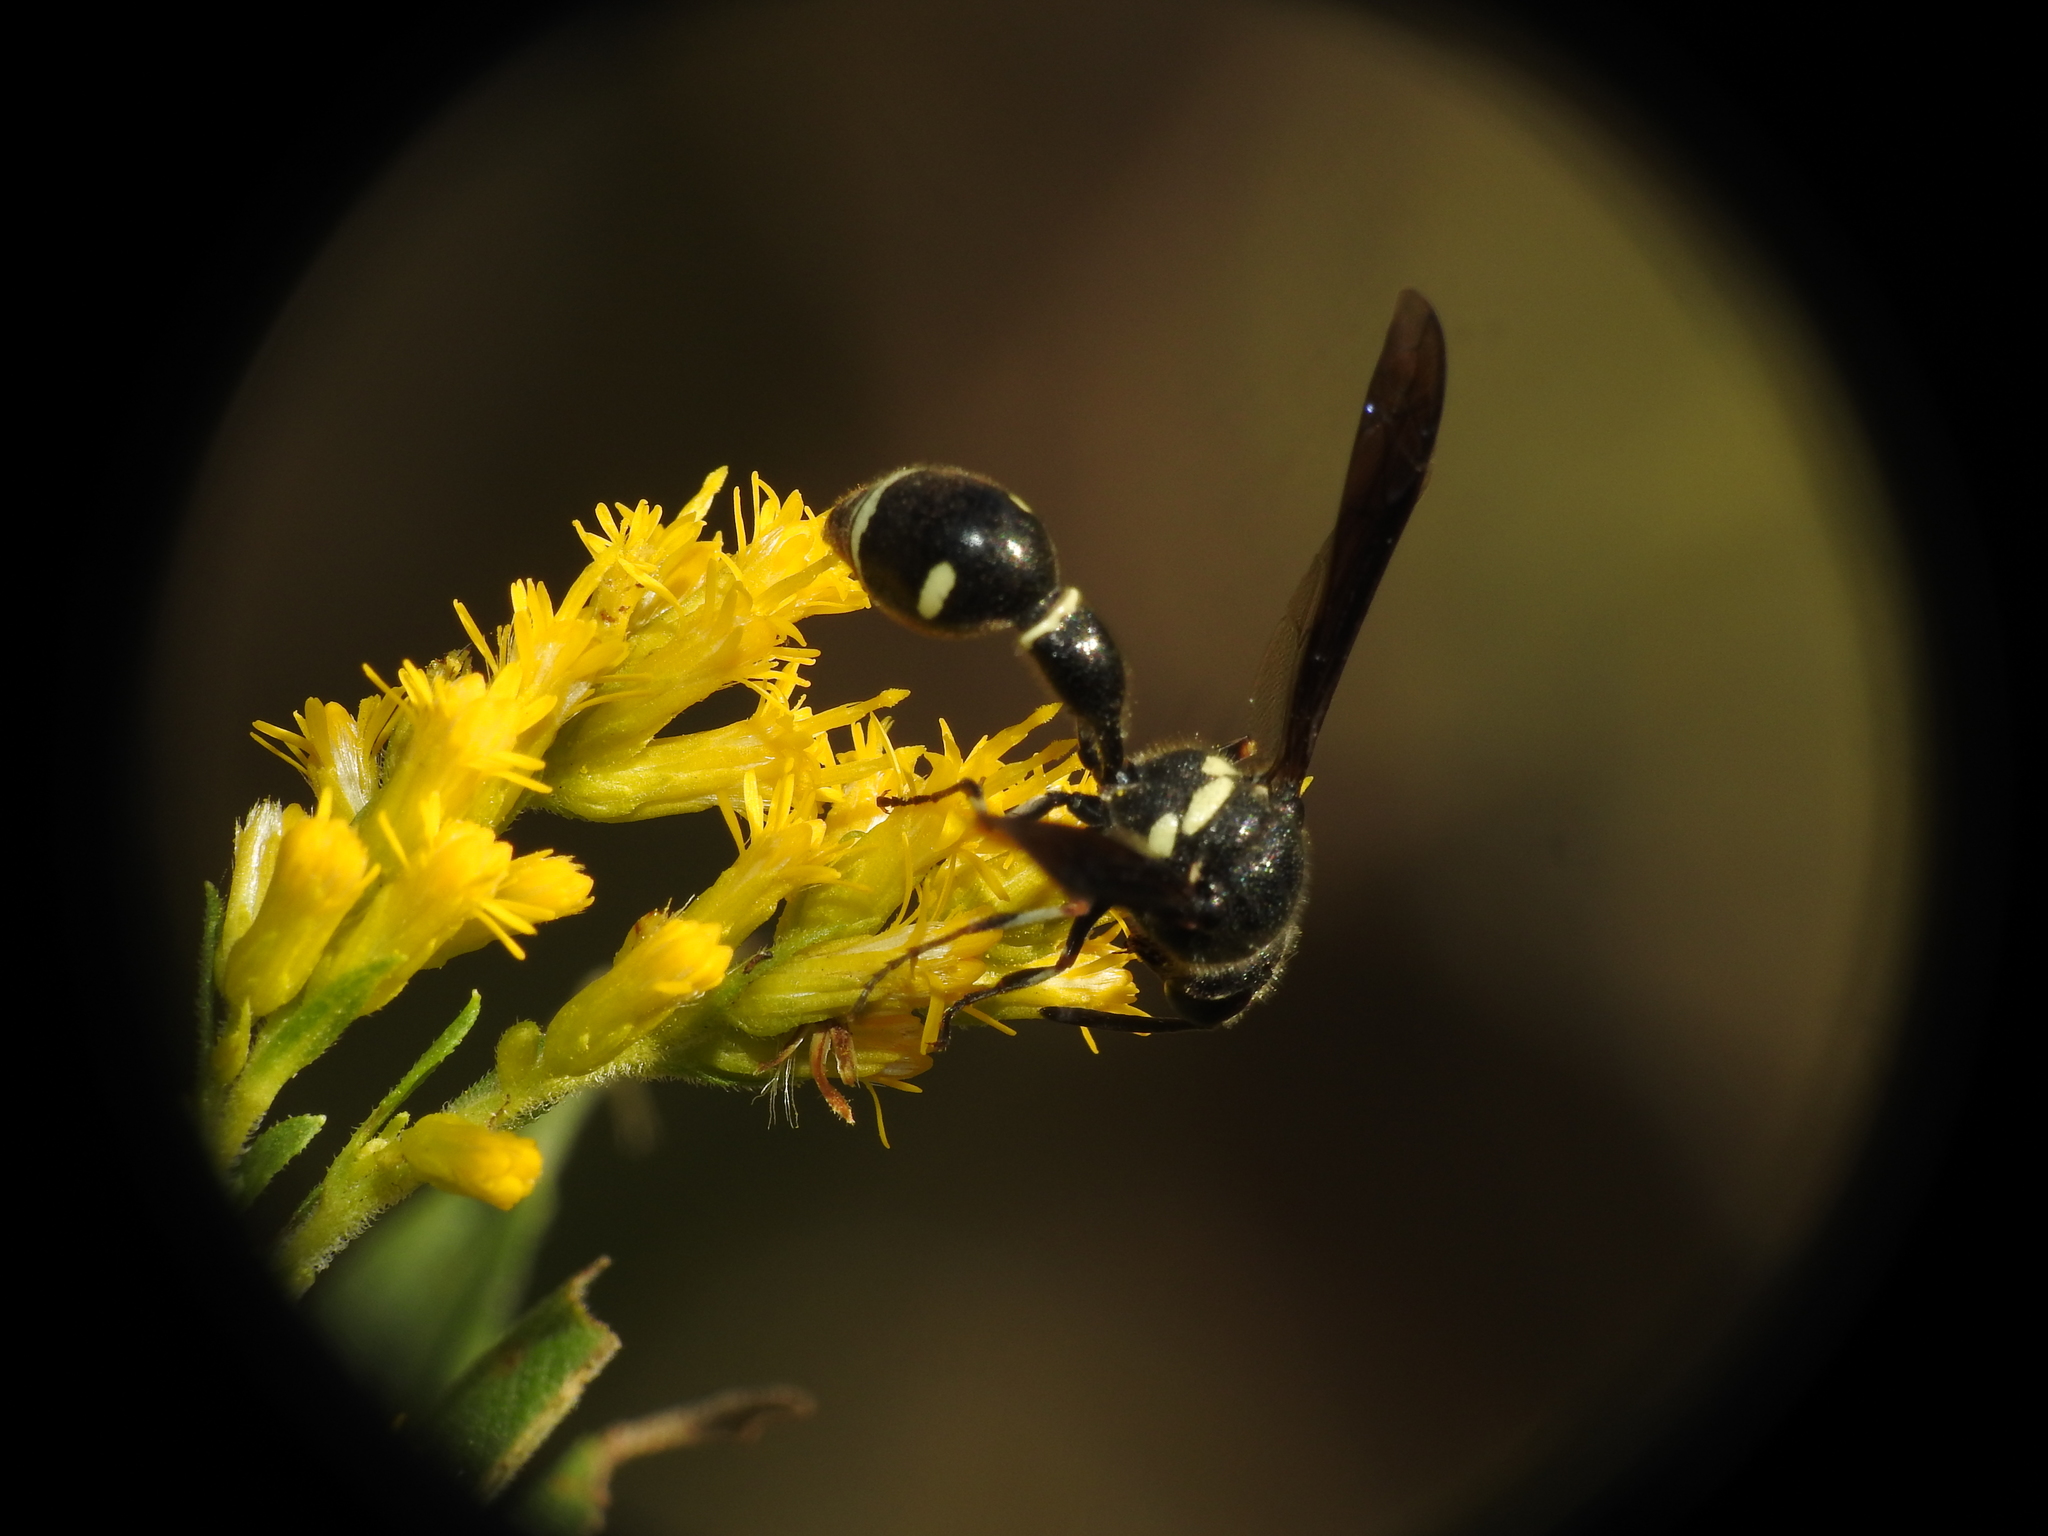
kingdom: Animalia
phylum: Arthropoda
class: Insecta
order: Hymenoptera
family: Vespidae
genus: Eumenes
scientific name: Eumenes fraternus
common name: Fraternal potter wasp
